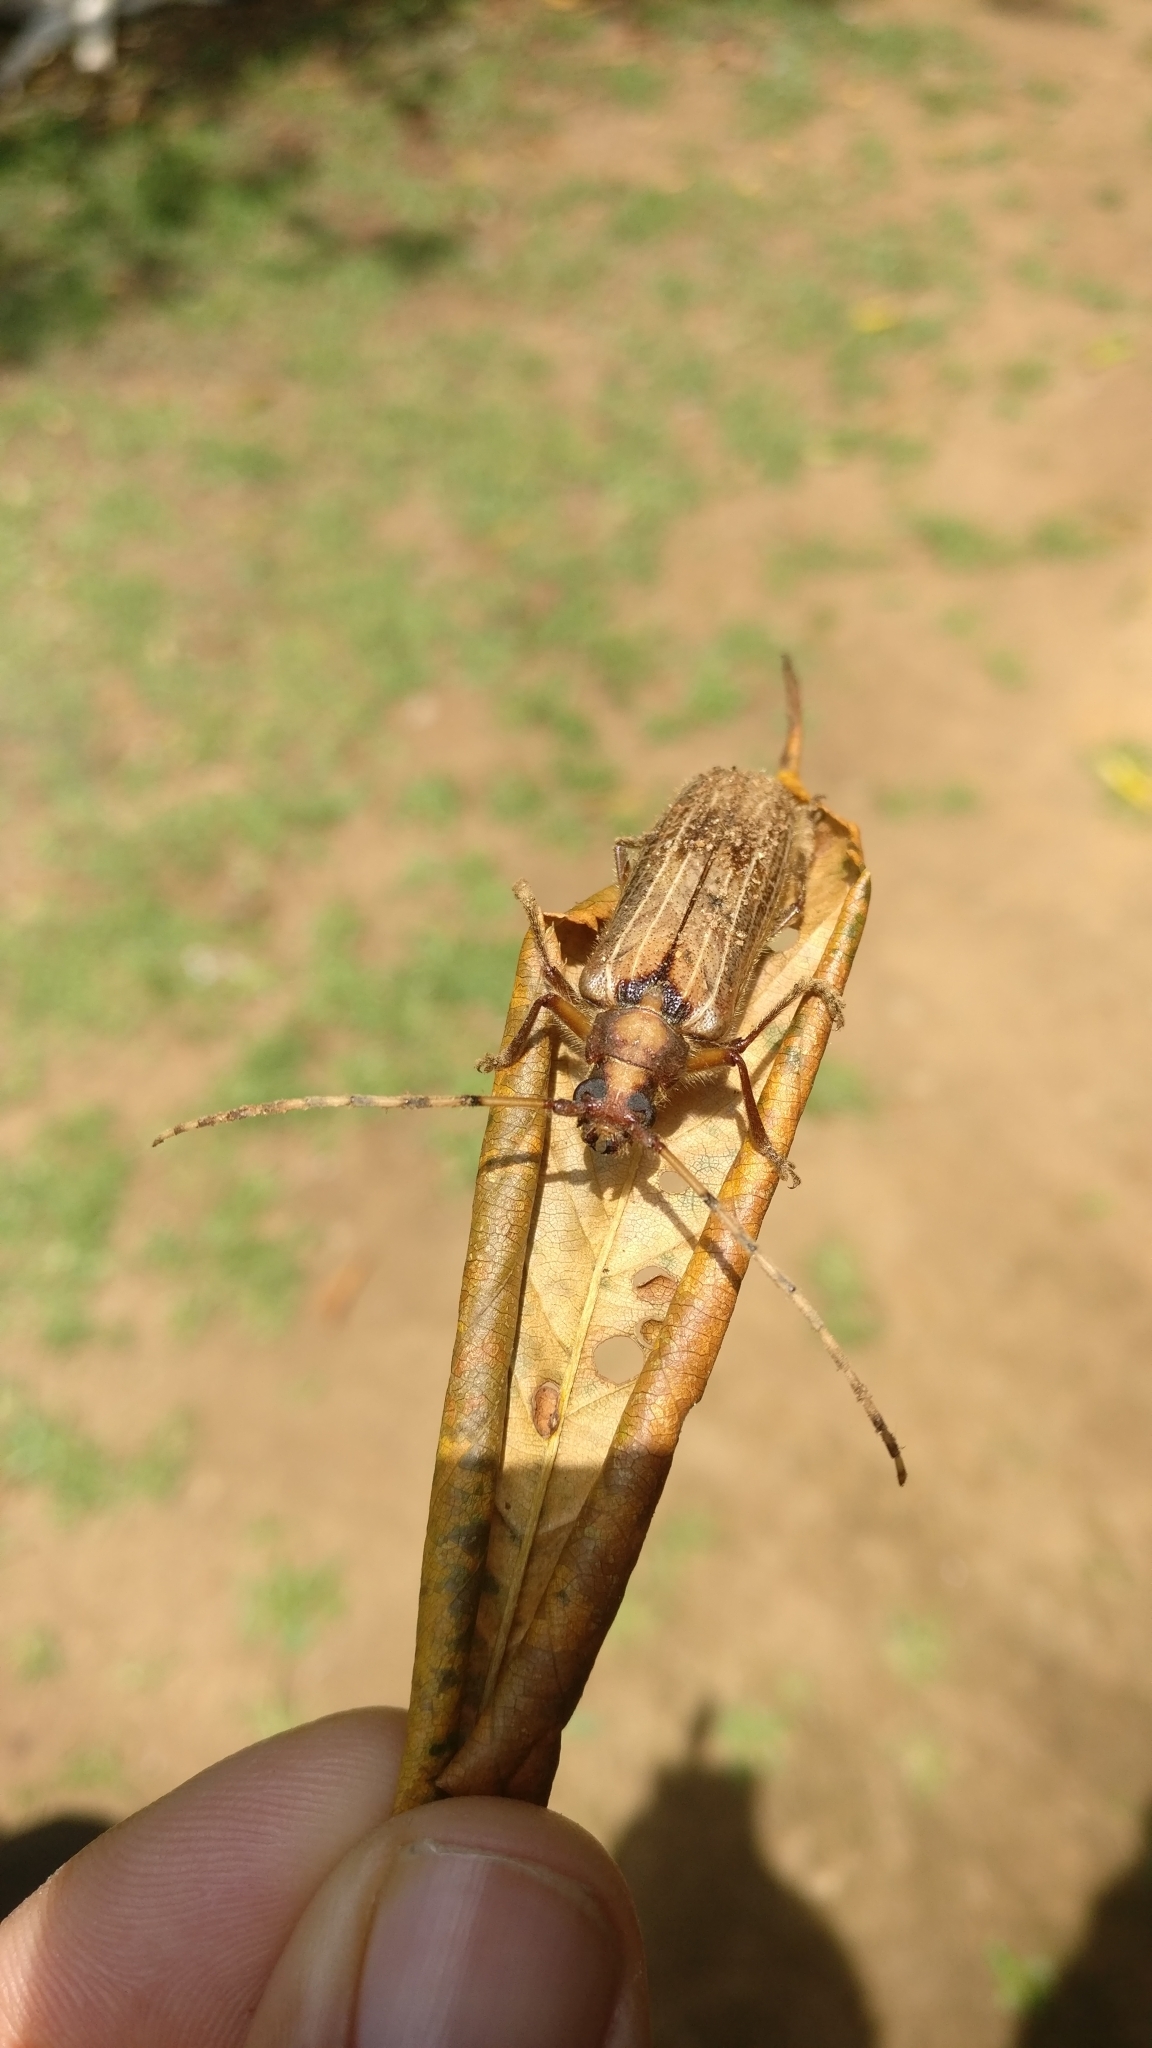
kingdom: Animalia
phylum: Arthropoda
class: Insecta
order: Coleoptera
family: Cerambycidae
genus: Dandamis
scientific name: Dandamis tricostatus
